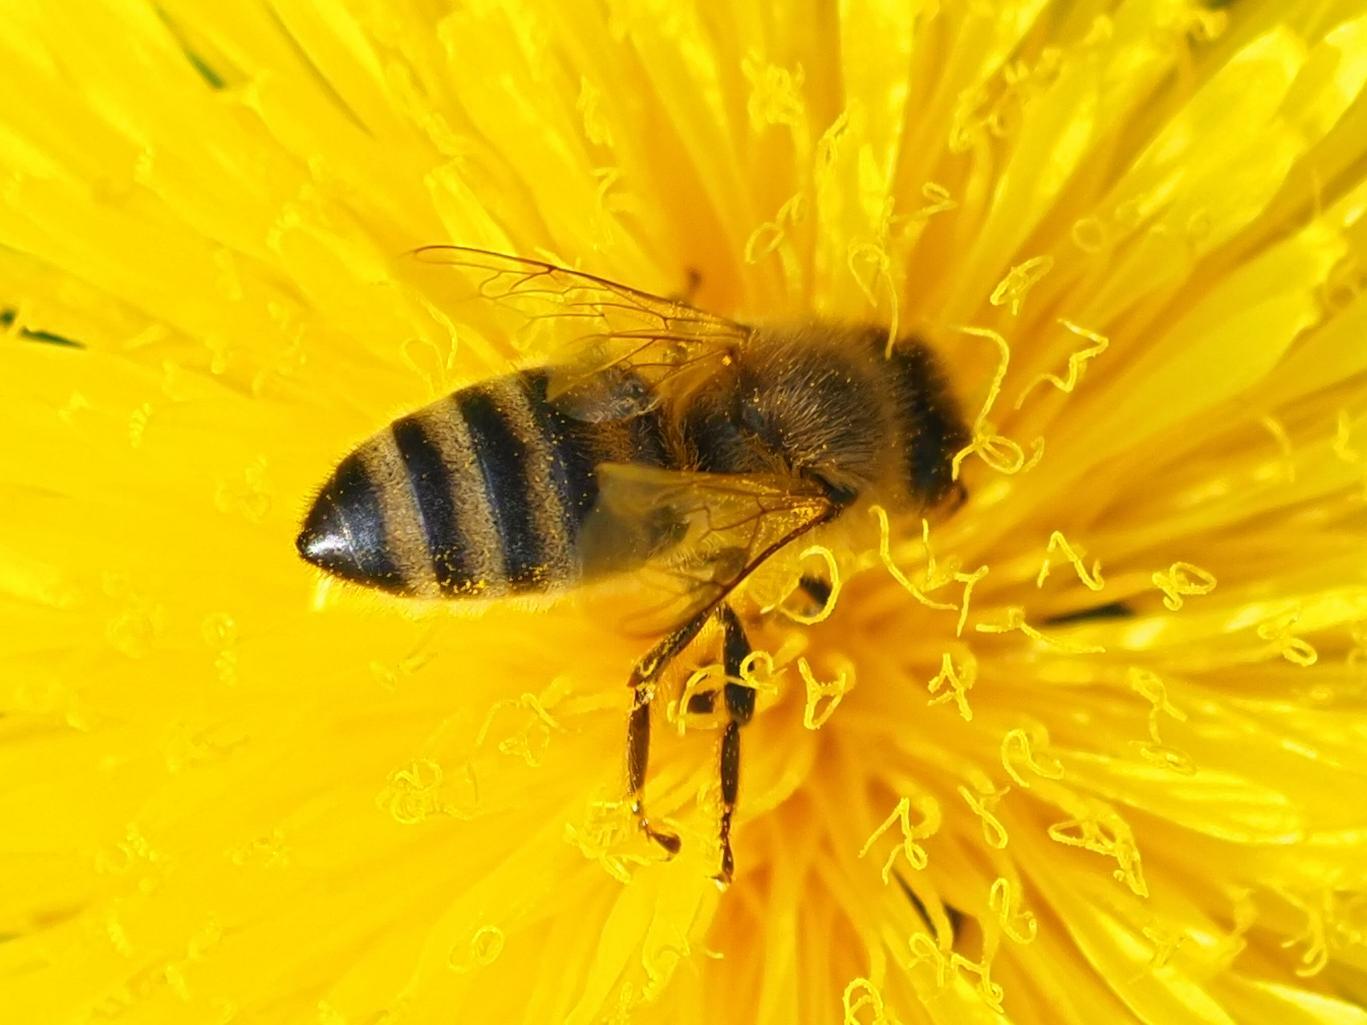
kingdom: Animalia
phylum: Arthropoda
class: Insecta
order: Hymenoptera
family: Apidae
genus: Apis
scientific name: Apis mellifera
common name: Honey bee
